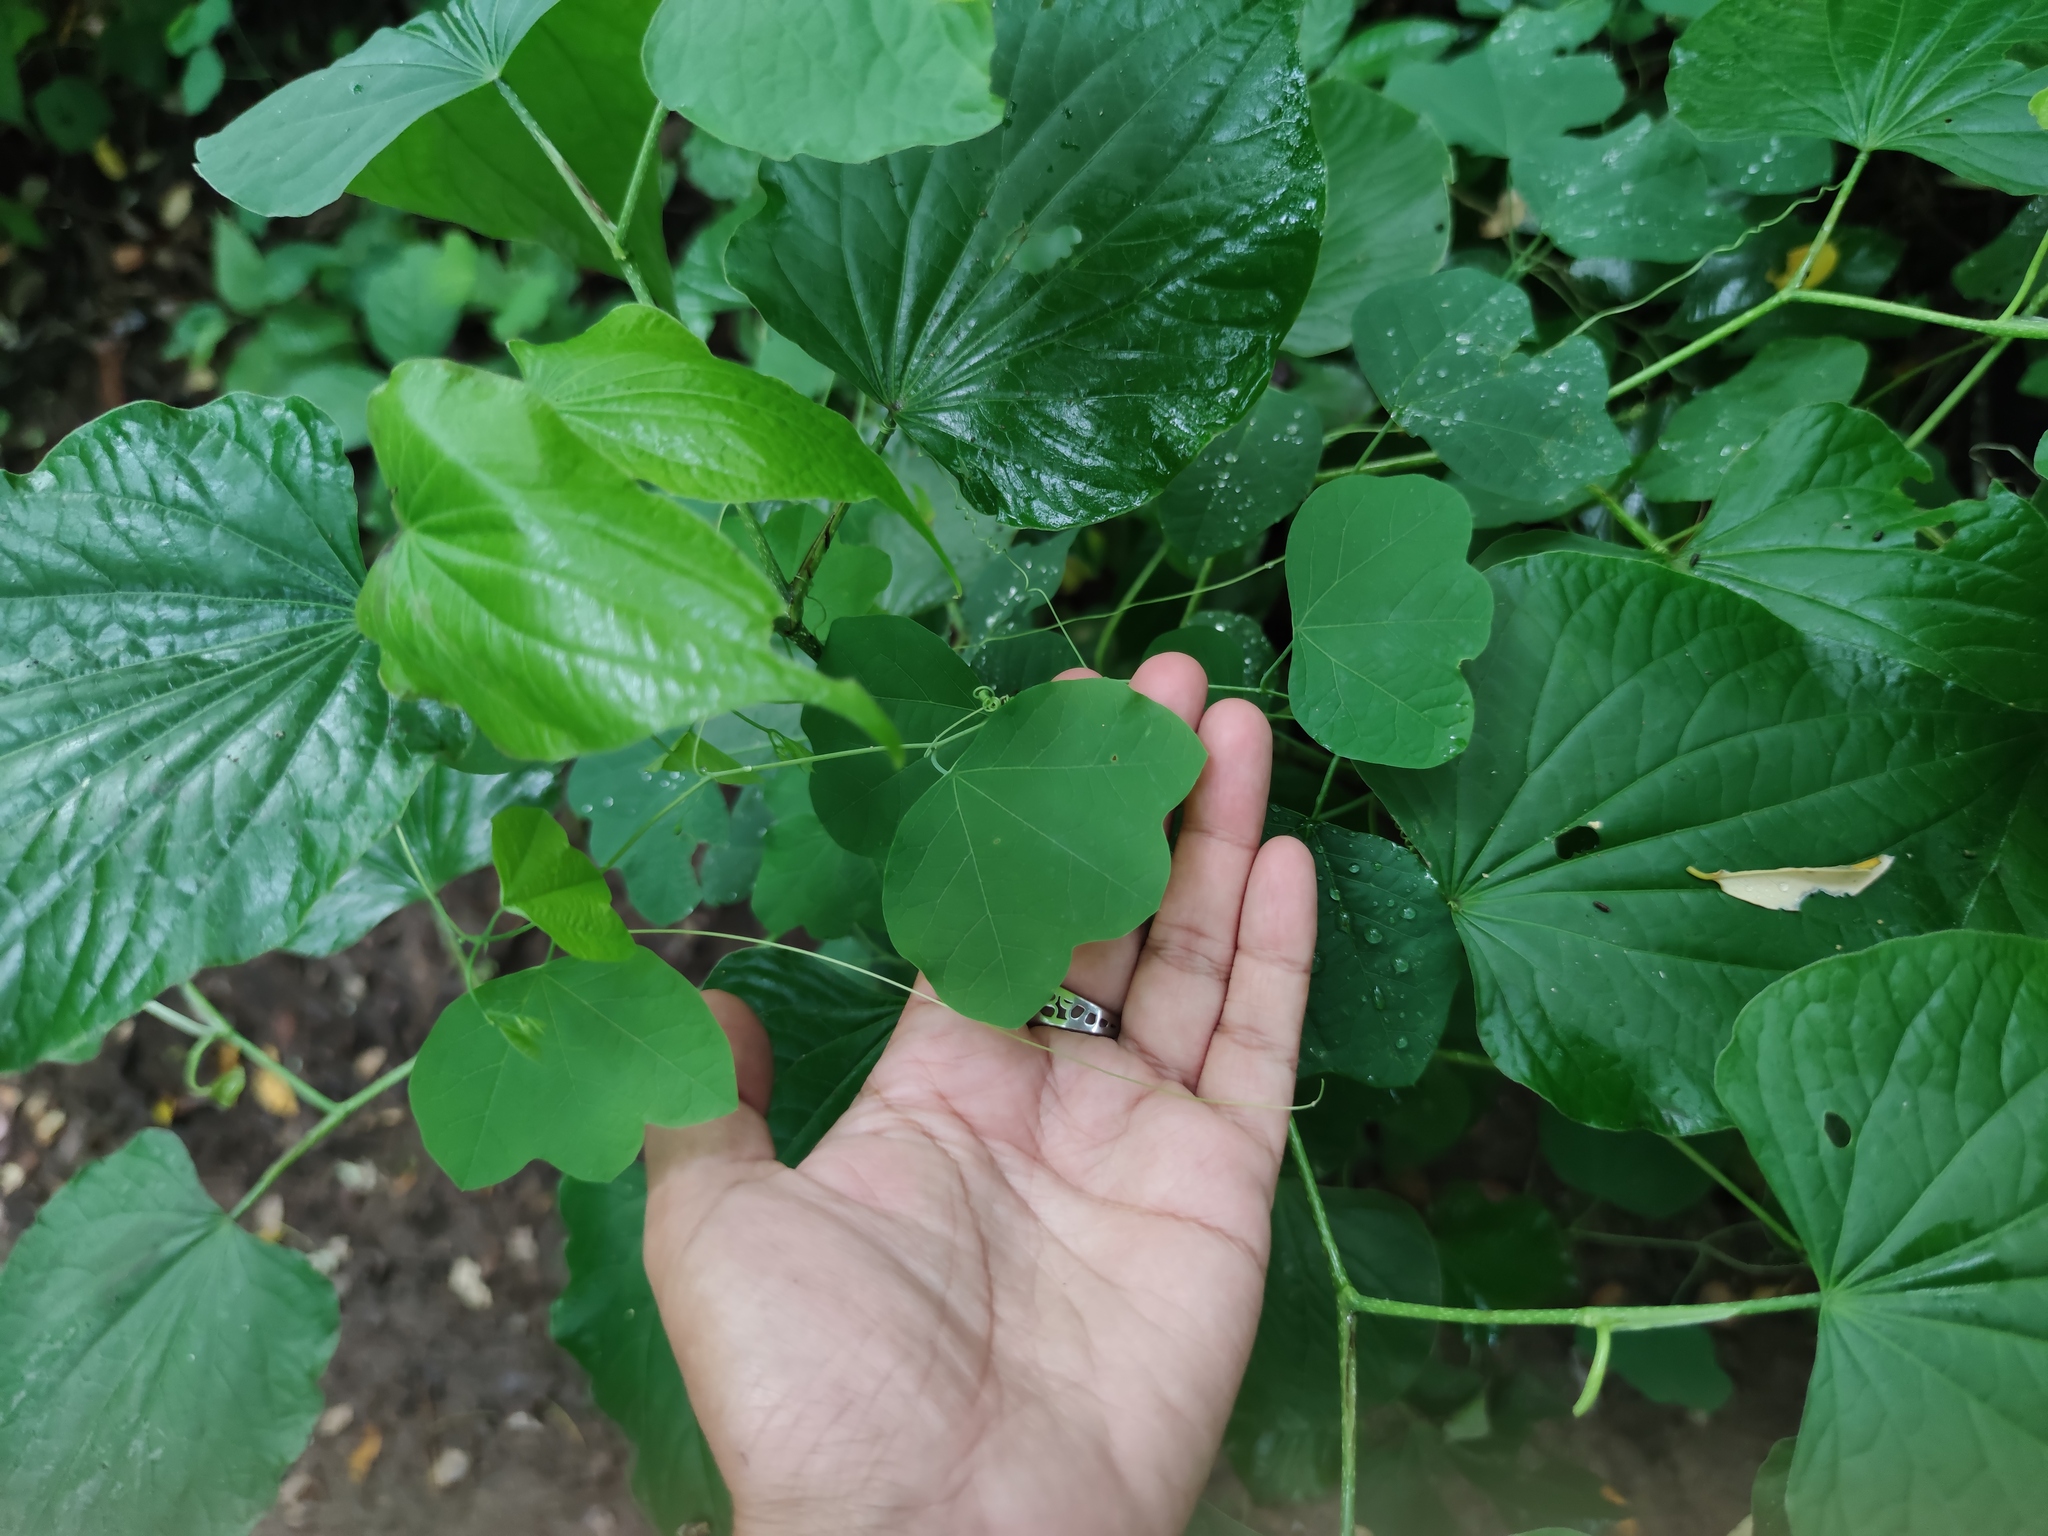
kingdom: Plantae
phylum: Tracheophyta
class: Magnoliopsida
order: Malpighiales
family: Passifloraceae
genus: Passiflora
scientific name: Passiflora filipes
